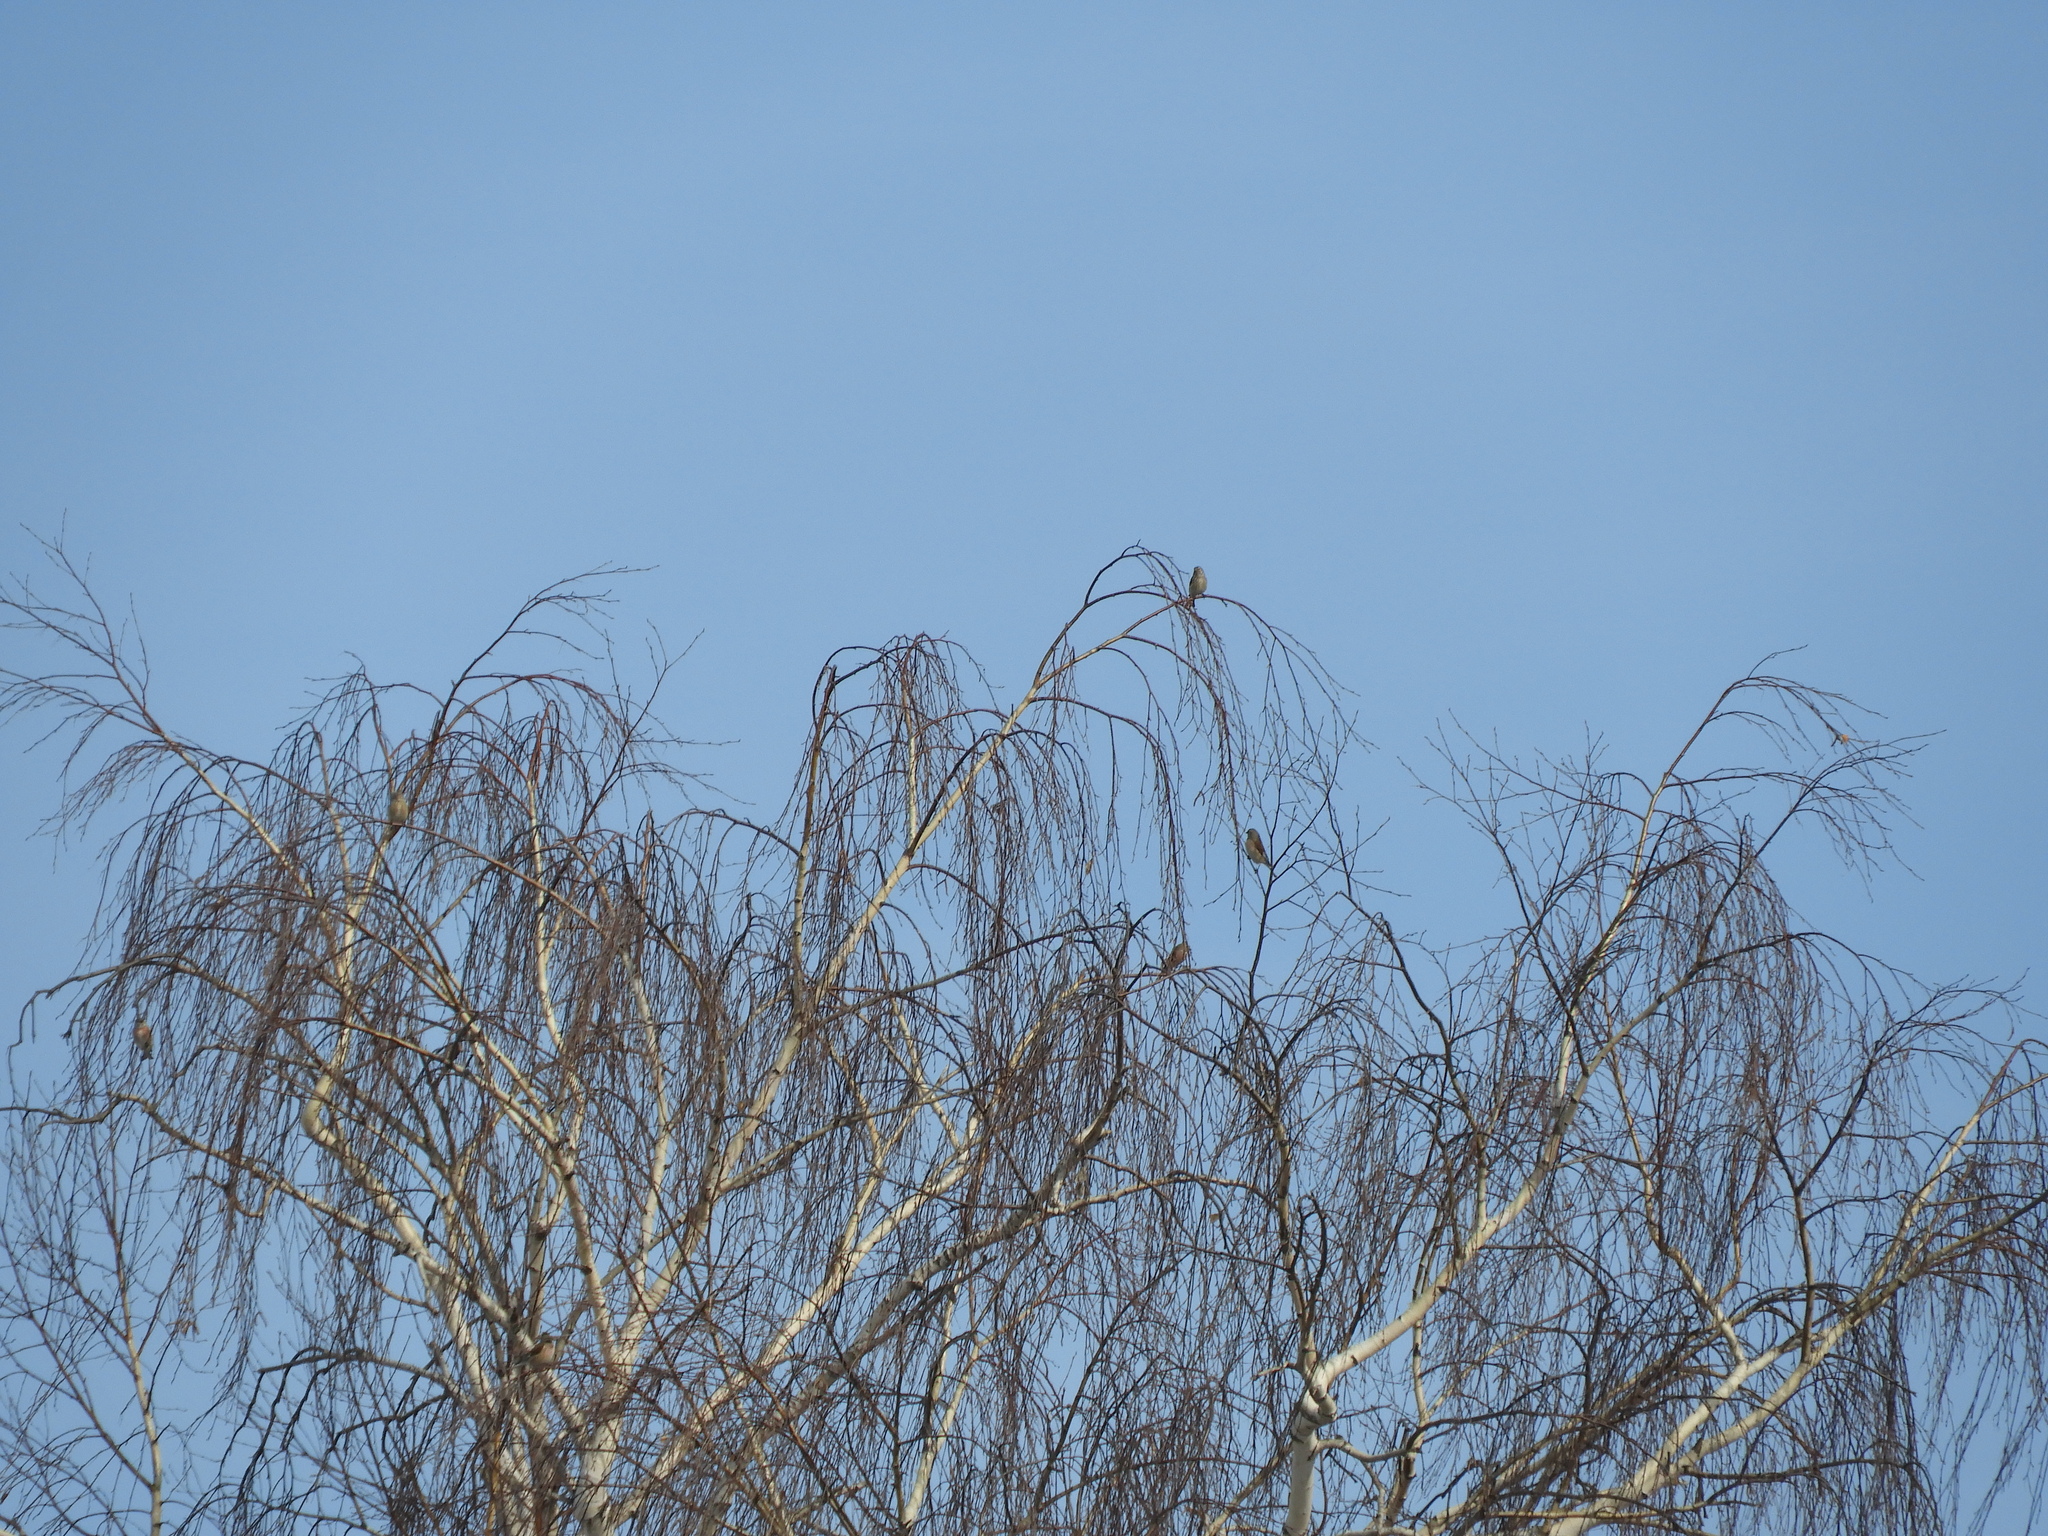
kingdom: Animalia
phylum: Chordata
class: Aves
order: Passeriformes
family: Fringillidae
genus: Linaria
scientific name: Linaria cannabina
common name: Common linnet
